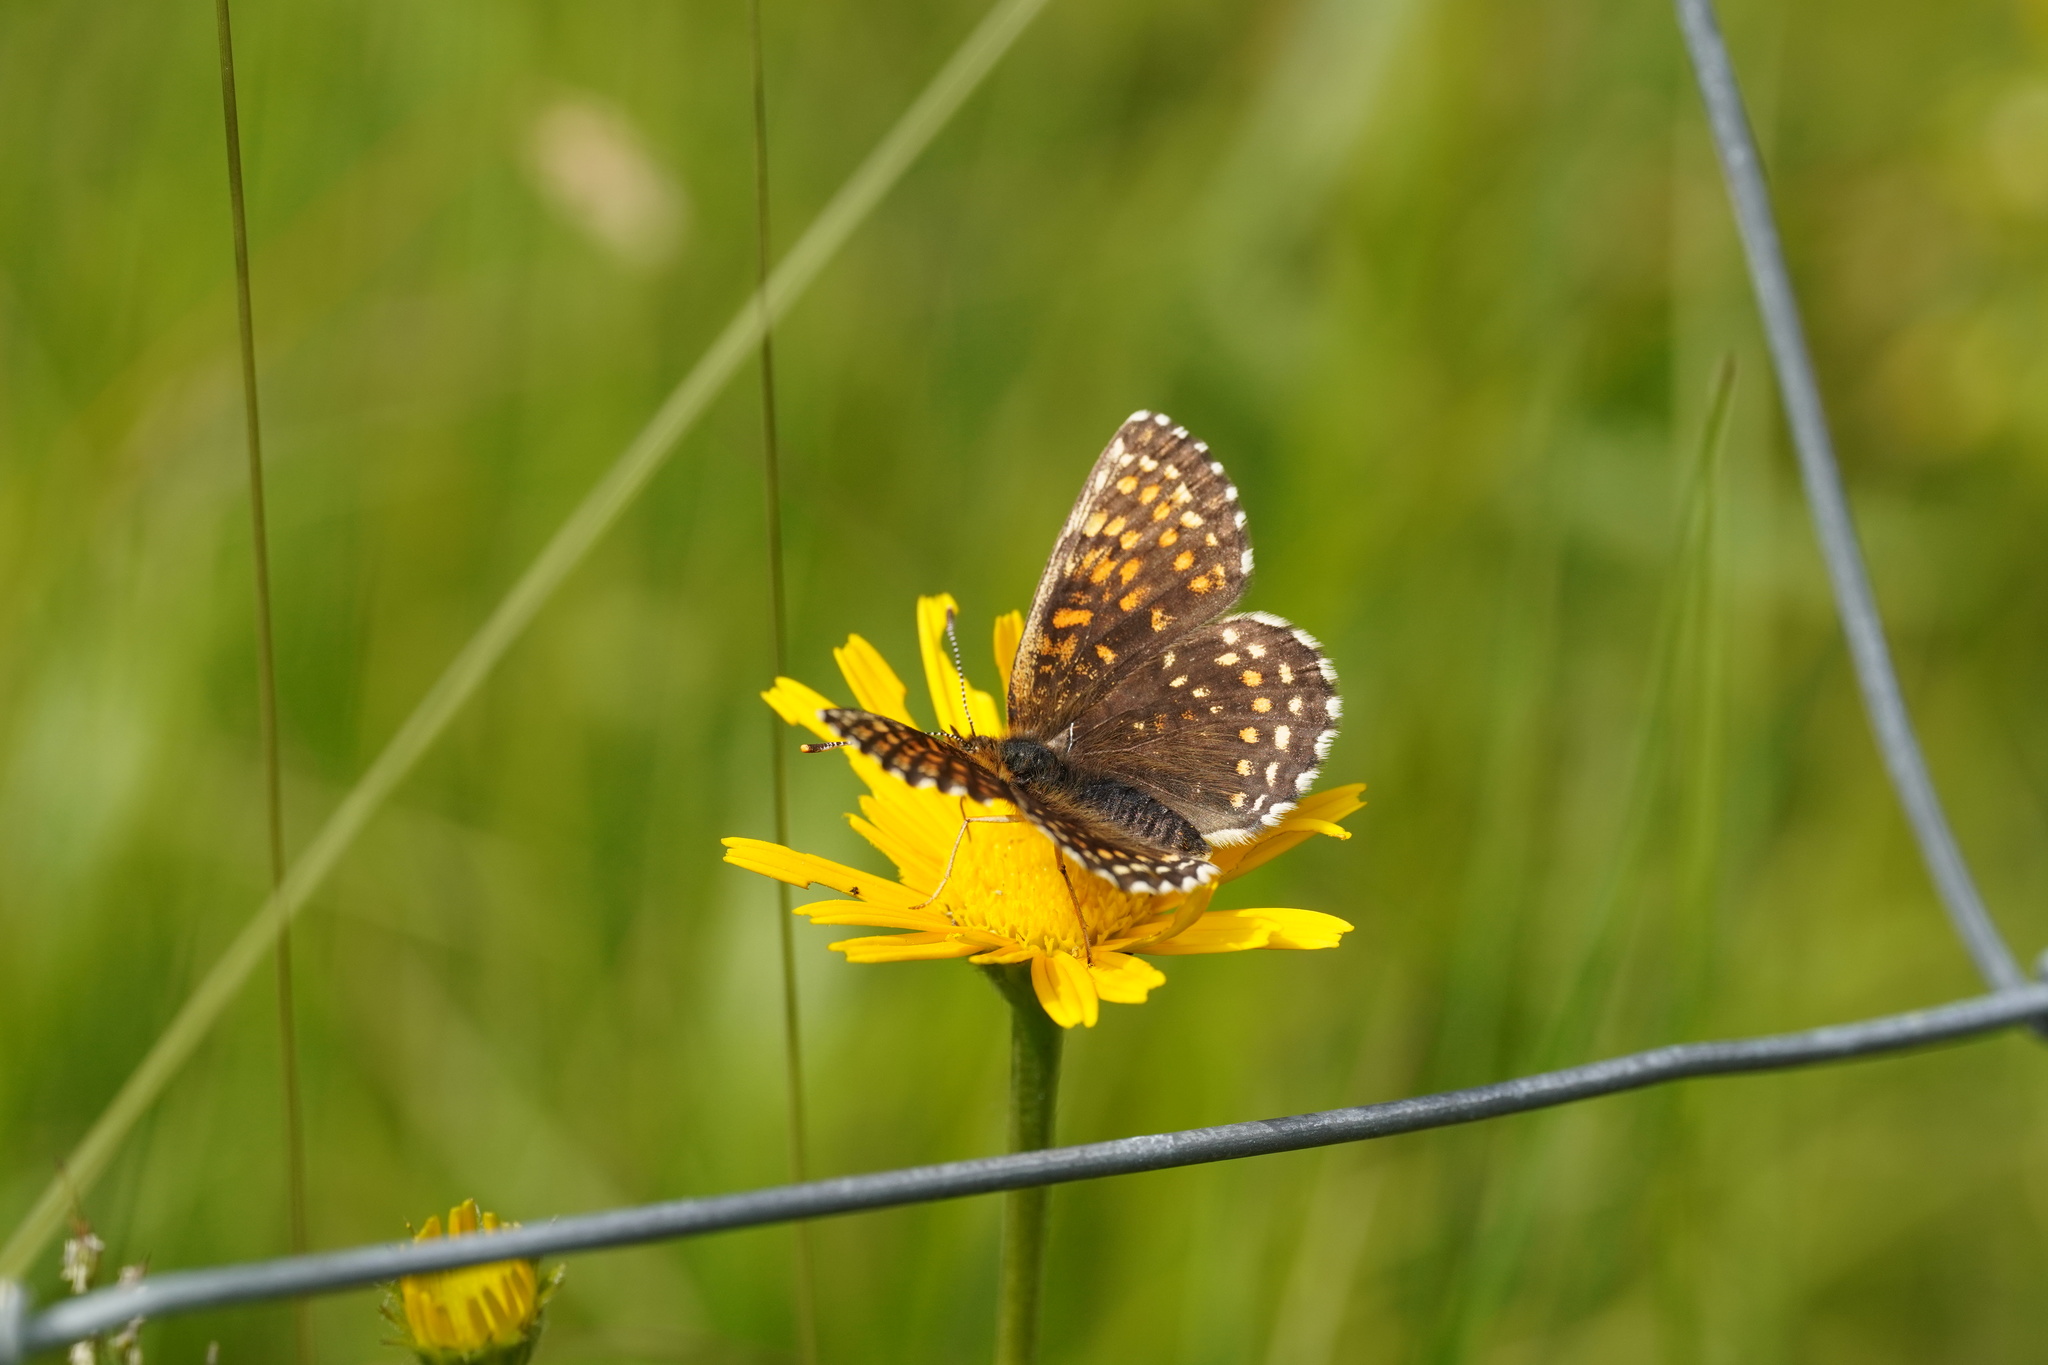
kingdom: Animalia
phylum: Arthropoda
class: Insecta
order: Lepidoptera
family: Nymphalidae
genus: Melitaea
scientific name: Melitaea diamina
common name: False heath fritillary
